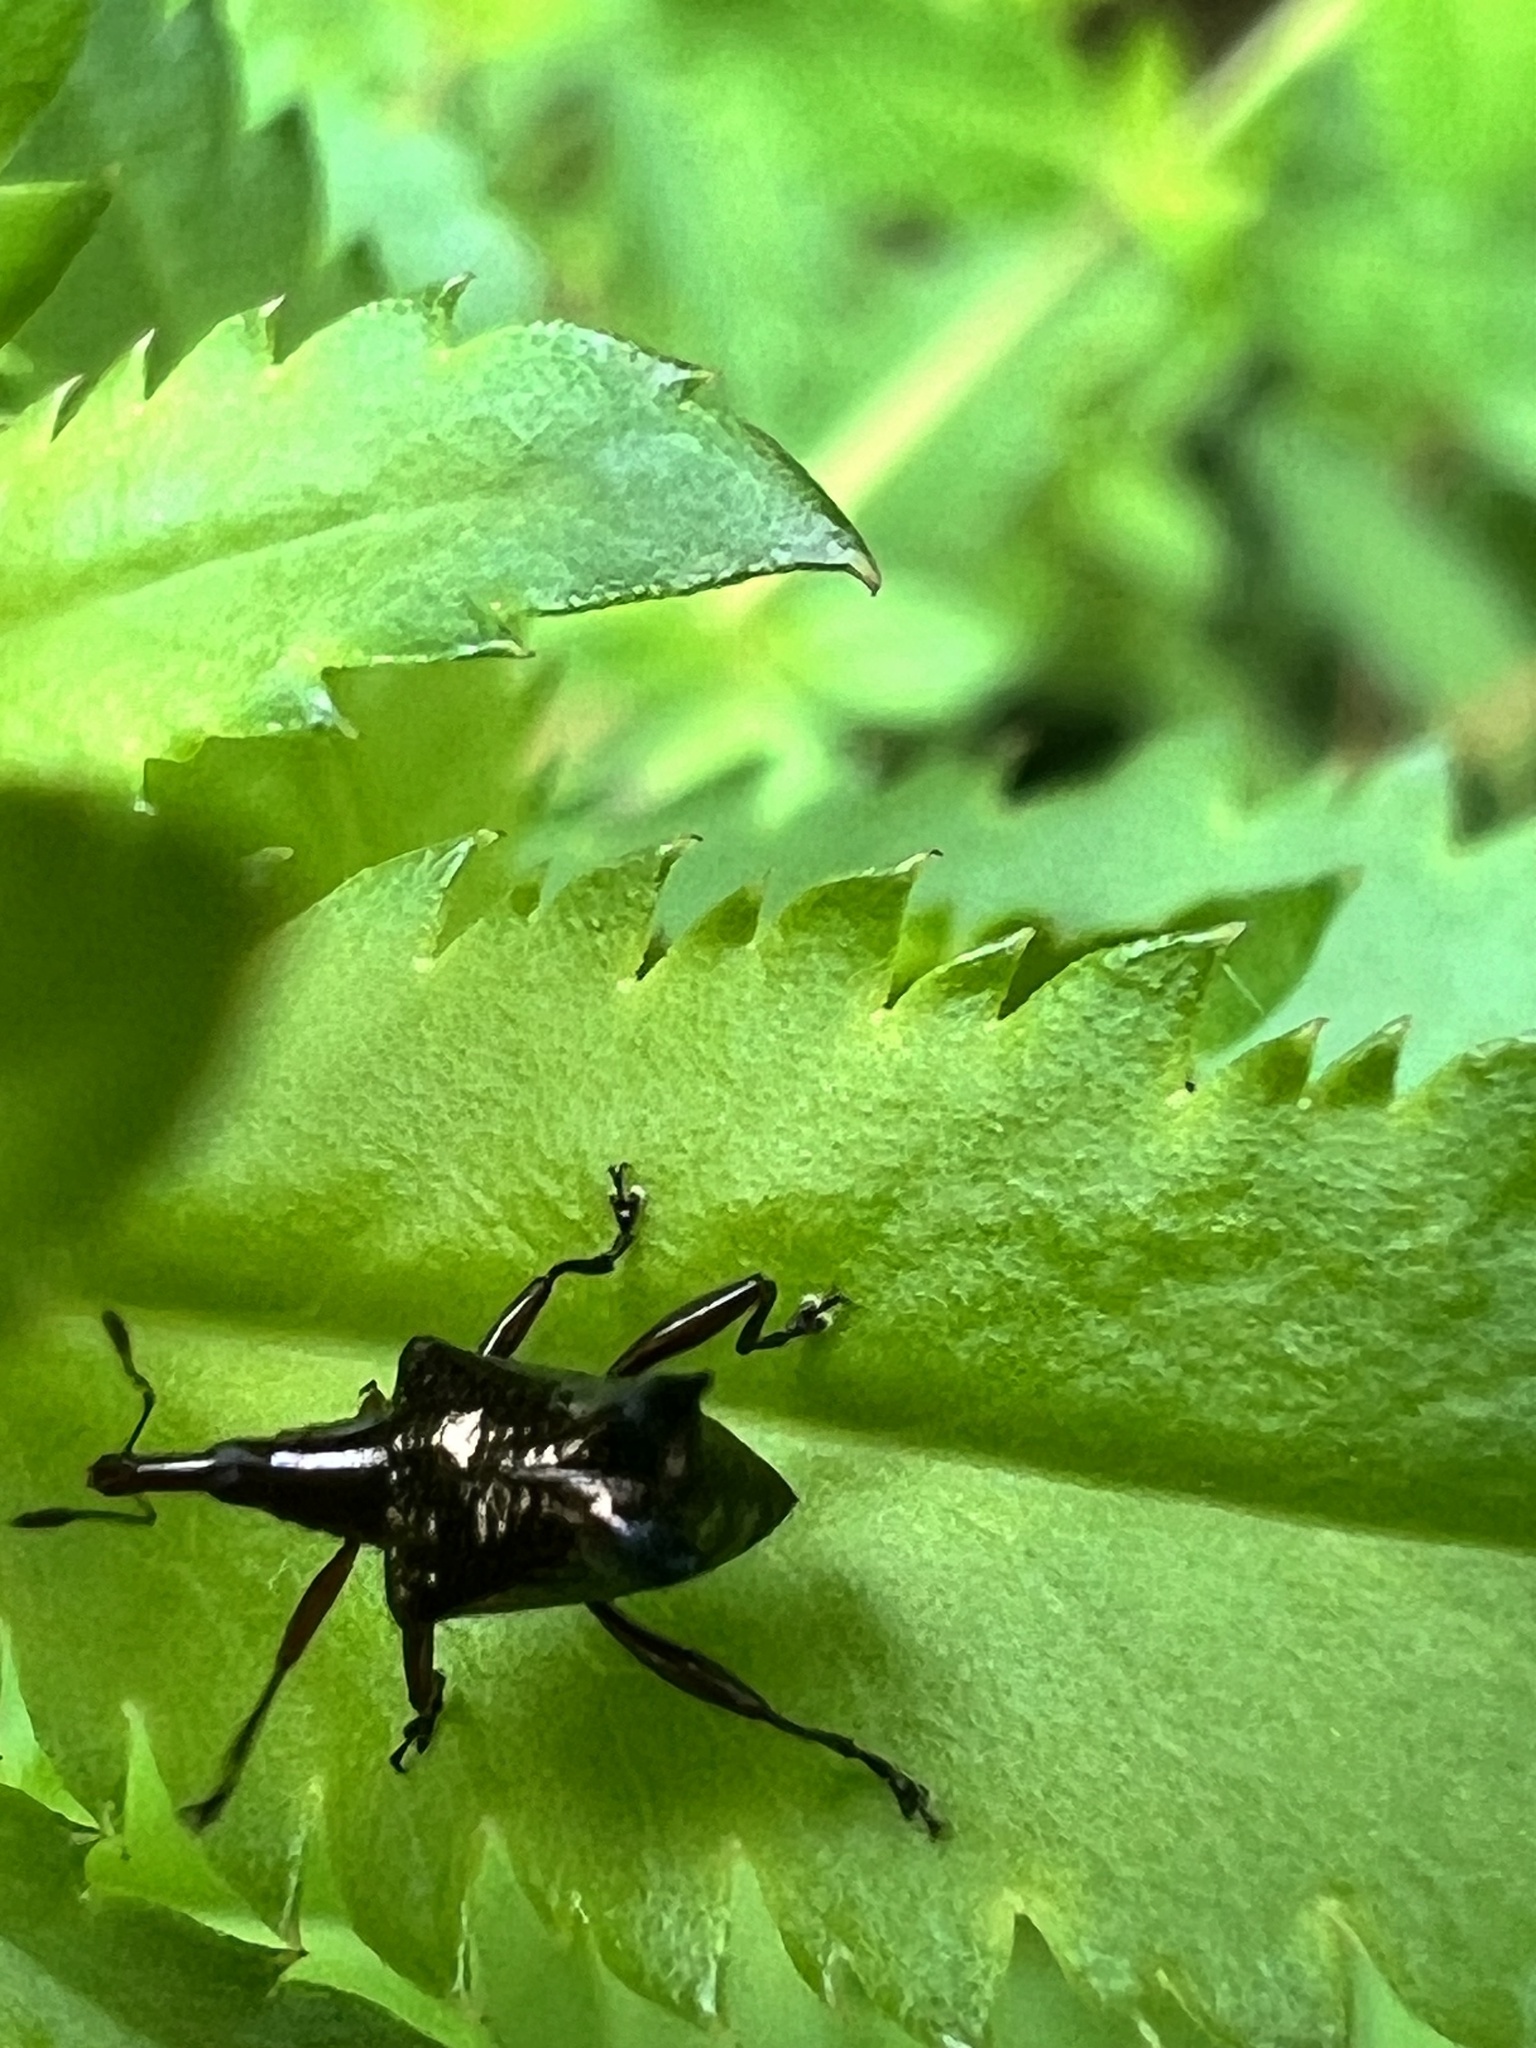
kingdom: Animalia
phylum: Arthropoda
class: Insecta
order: Coleoptera
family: Curculionidae
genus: Scolopterus
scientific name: Scolopterus penicillatus
